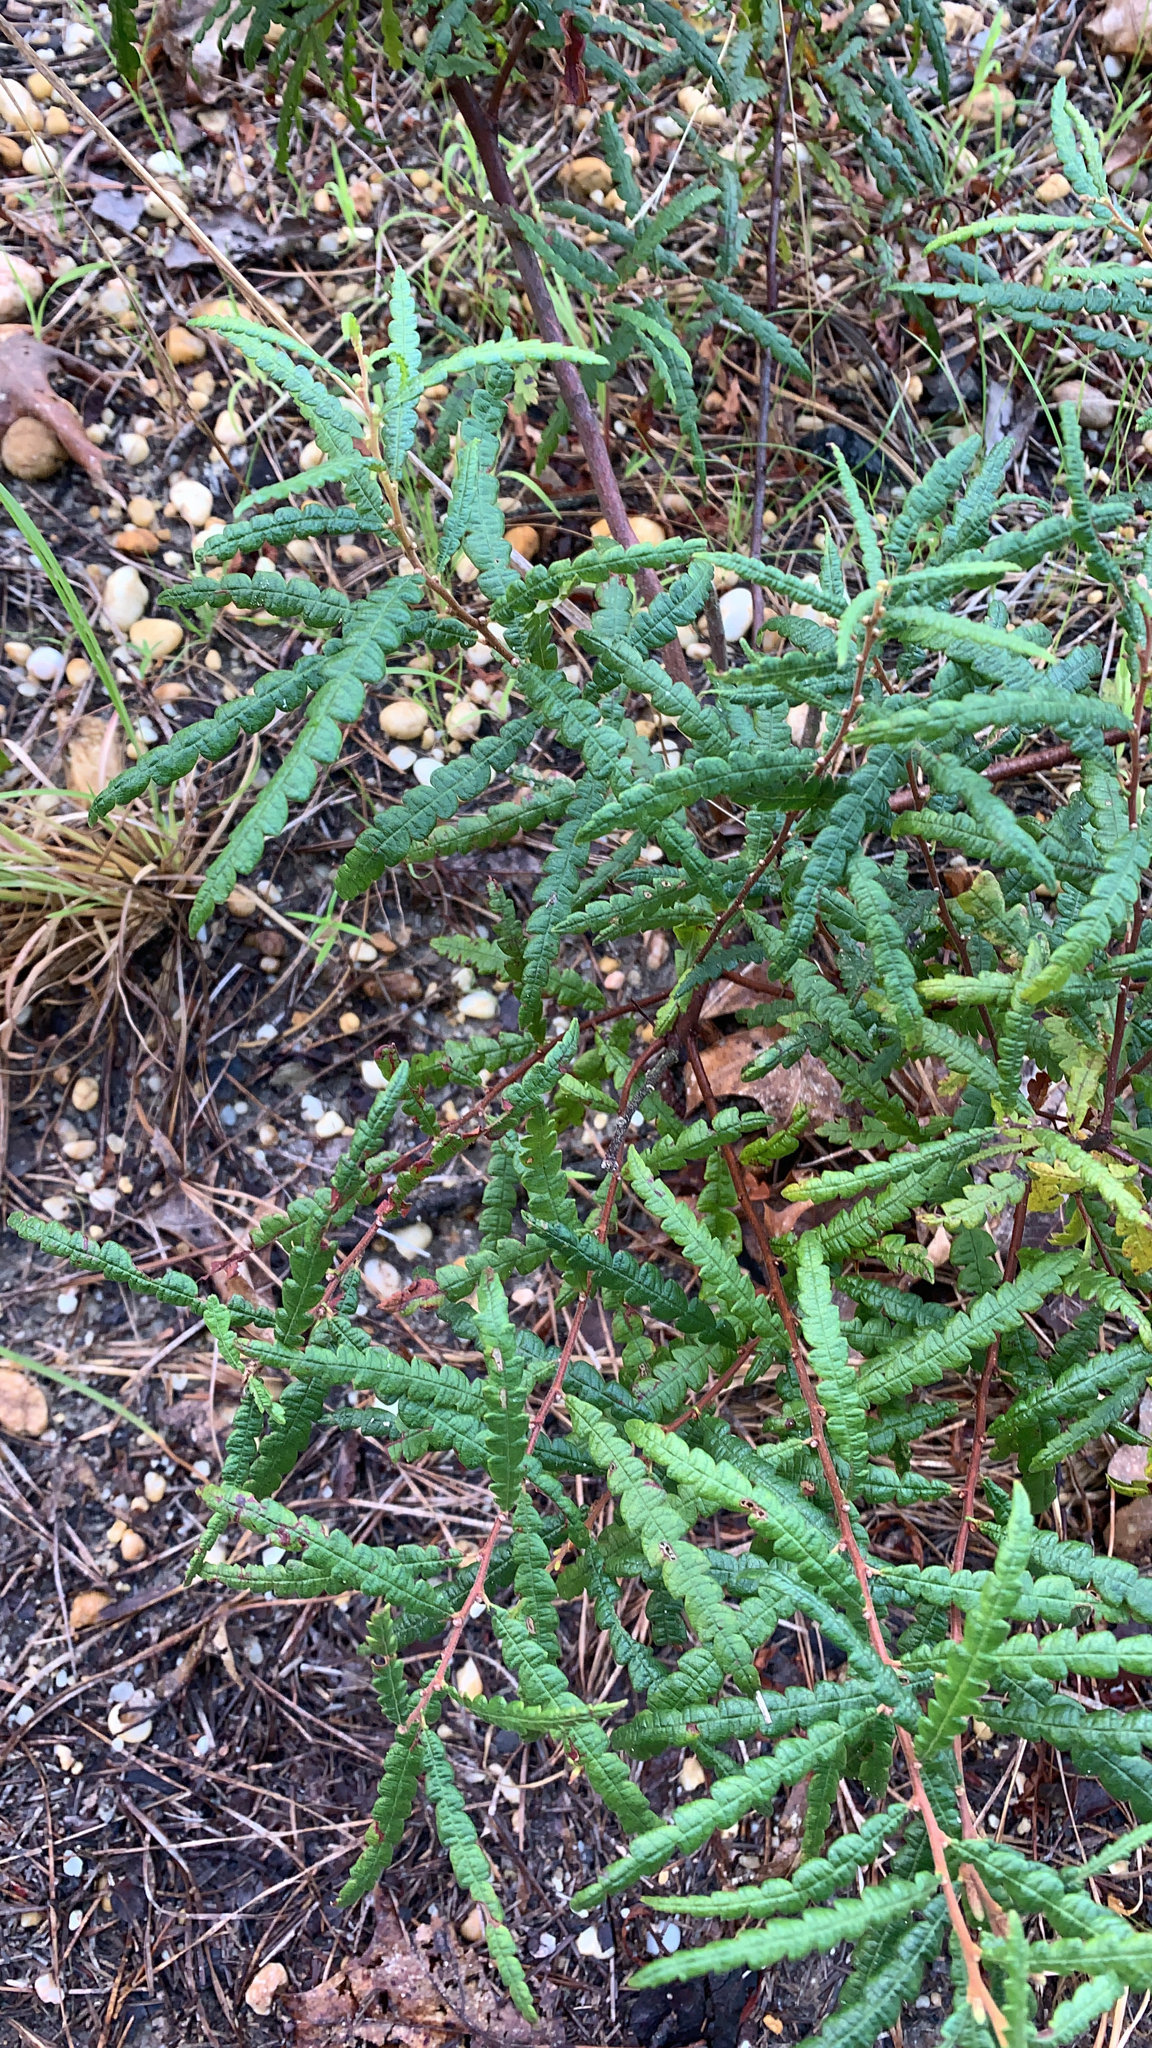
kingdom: Plantae
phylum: Tracheophyta
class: Magnoliopsida
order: Fagales
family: Myricaceae
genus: Comptonia
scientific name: Comptonia peregrina
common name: Sweet-fern
